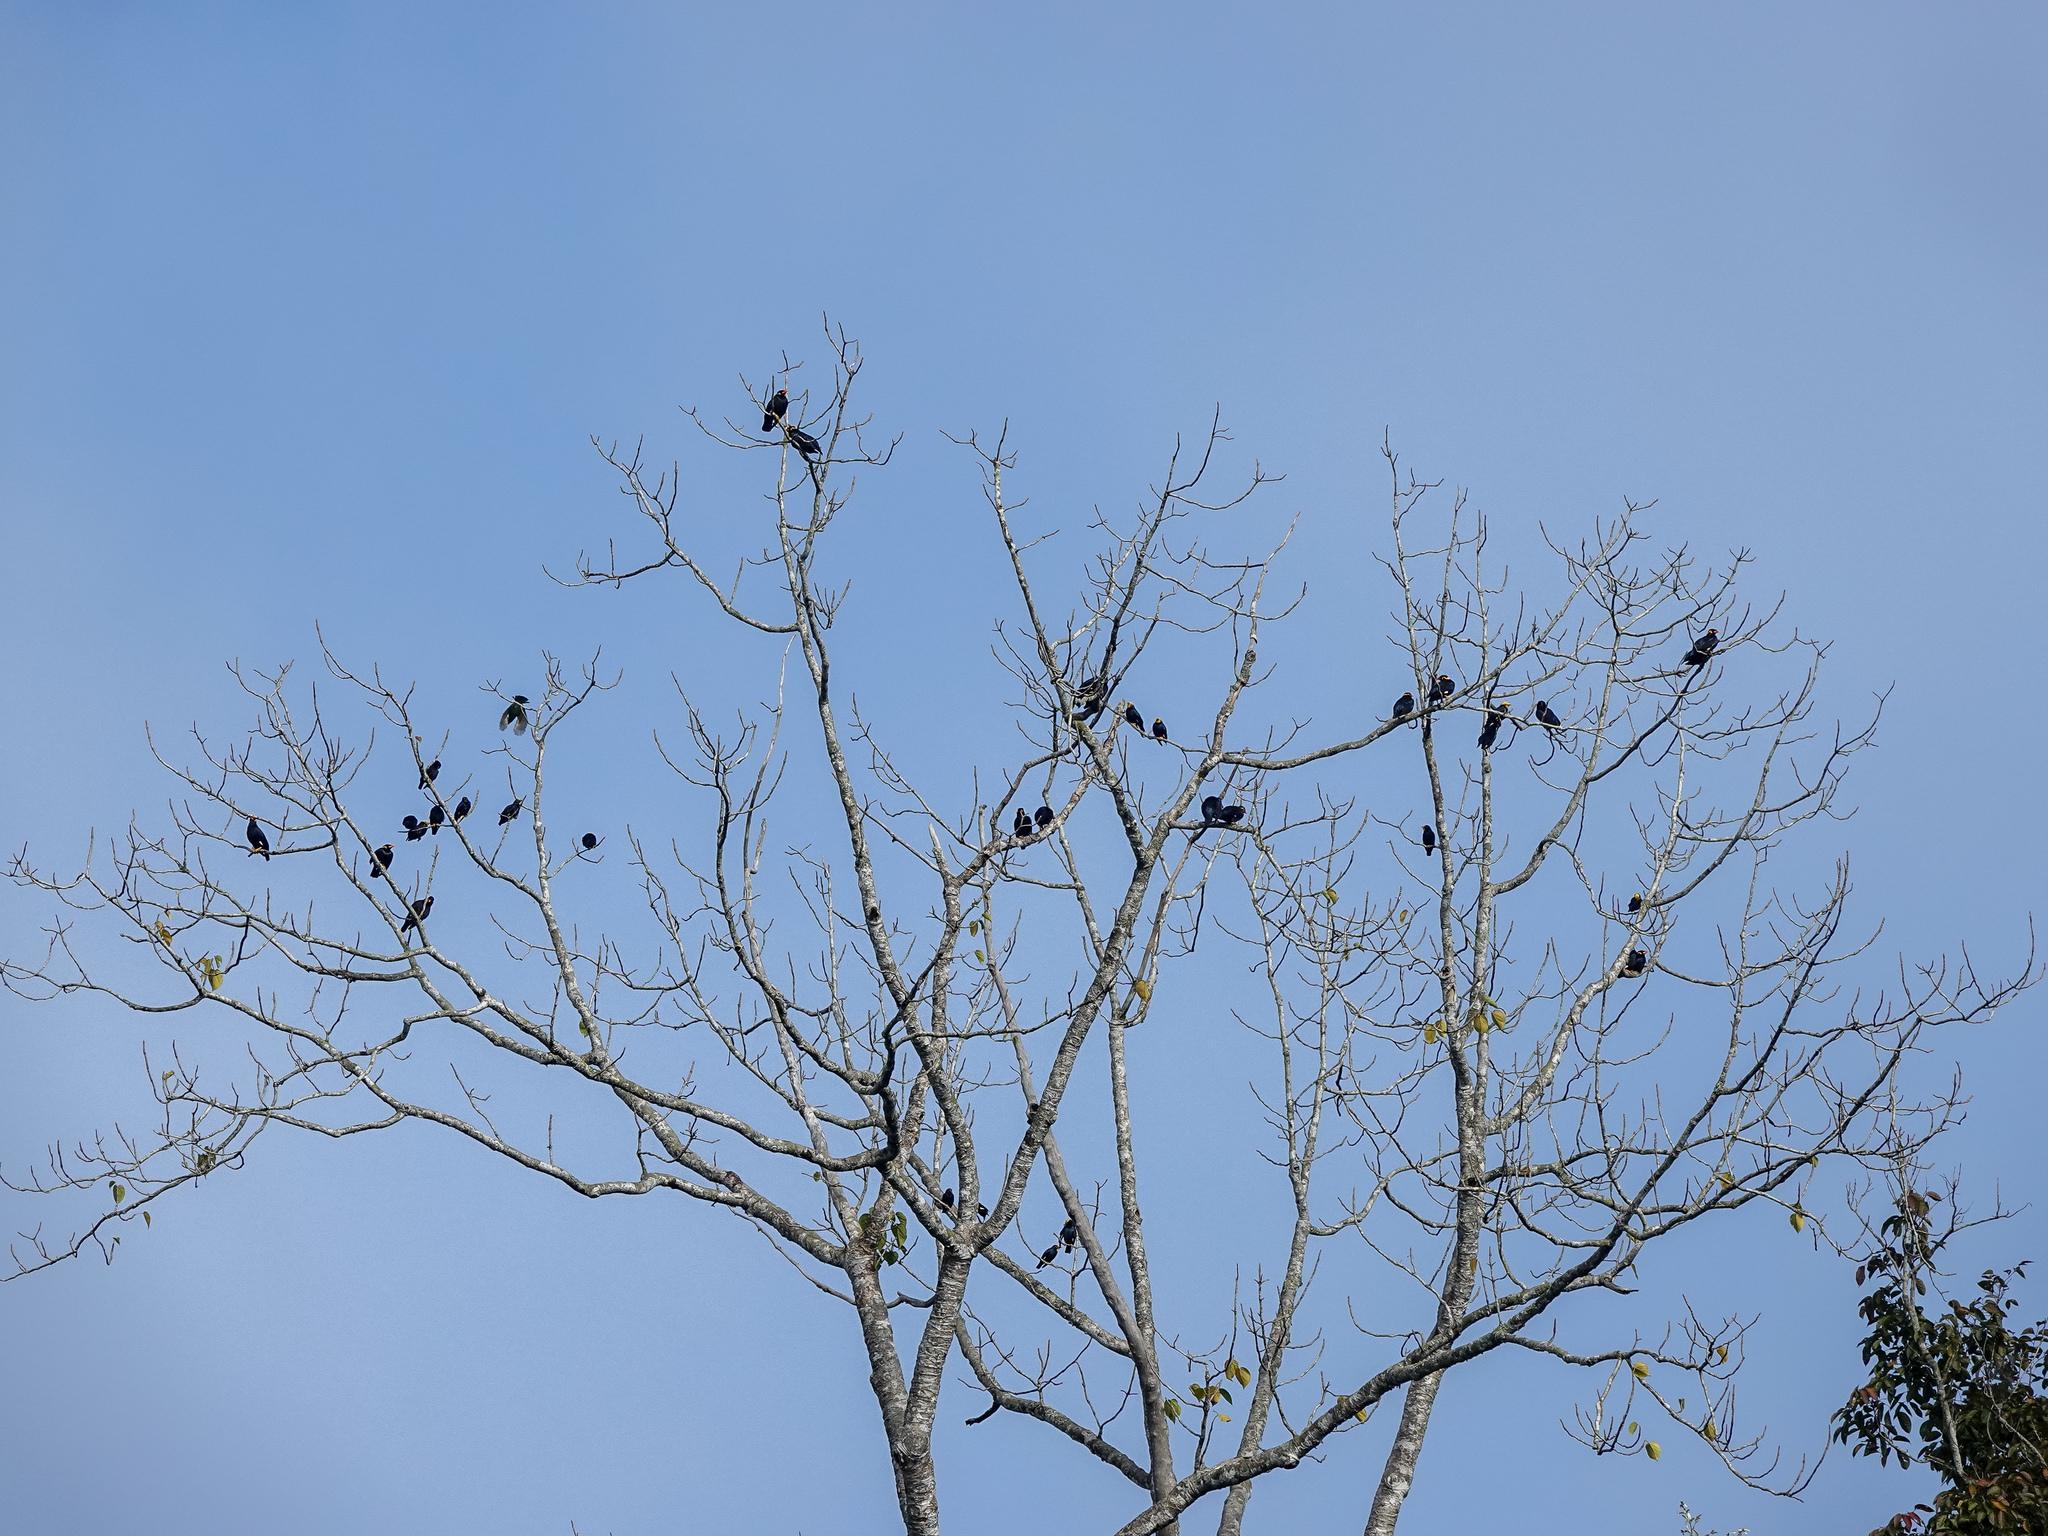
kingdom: Animalia
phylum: Chordata
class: Aves
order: Passeriformes
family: Sturnidae
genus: Gracula
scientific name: Gracula religiosa
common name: Common hill myna
